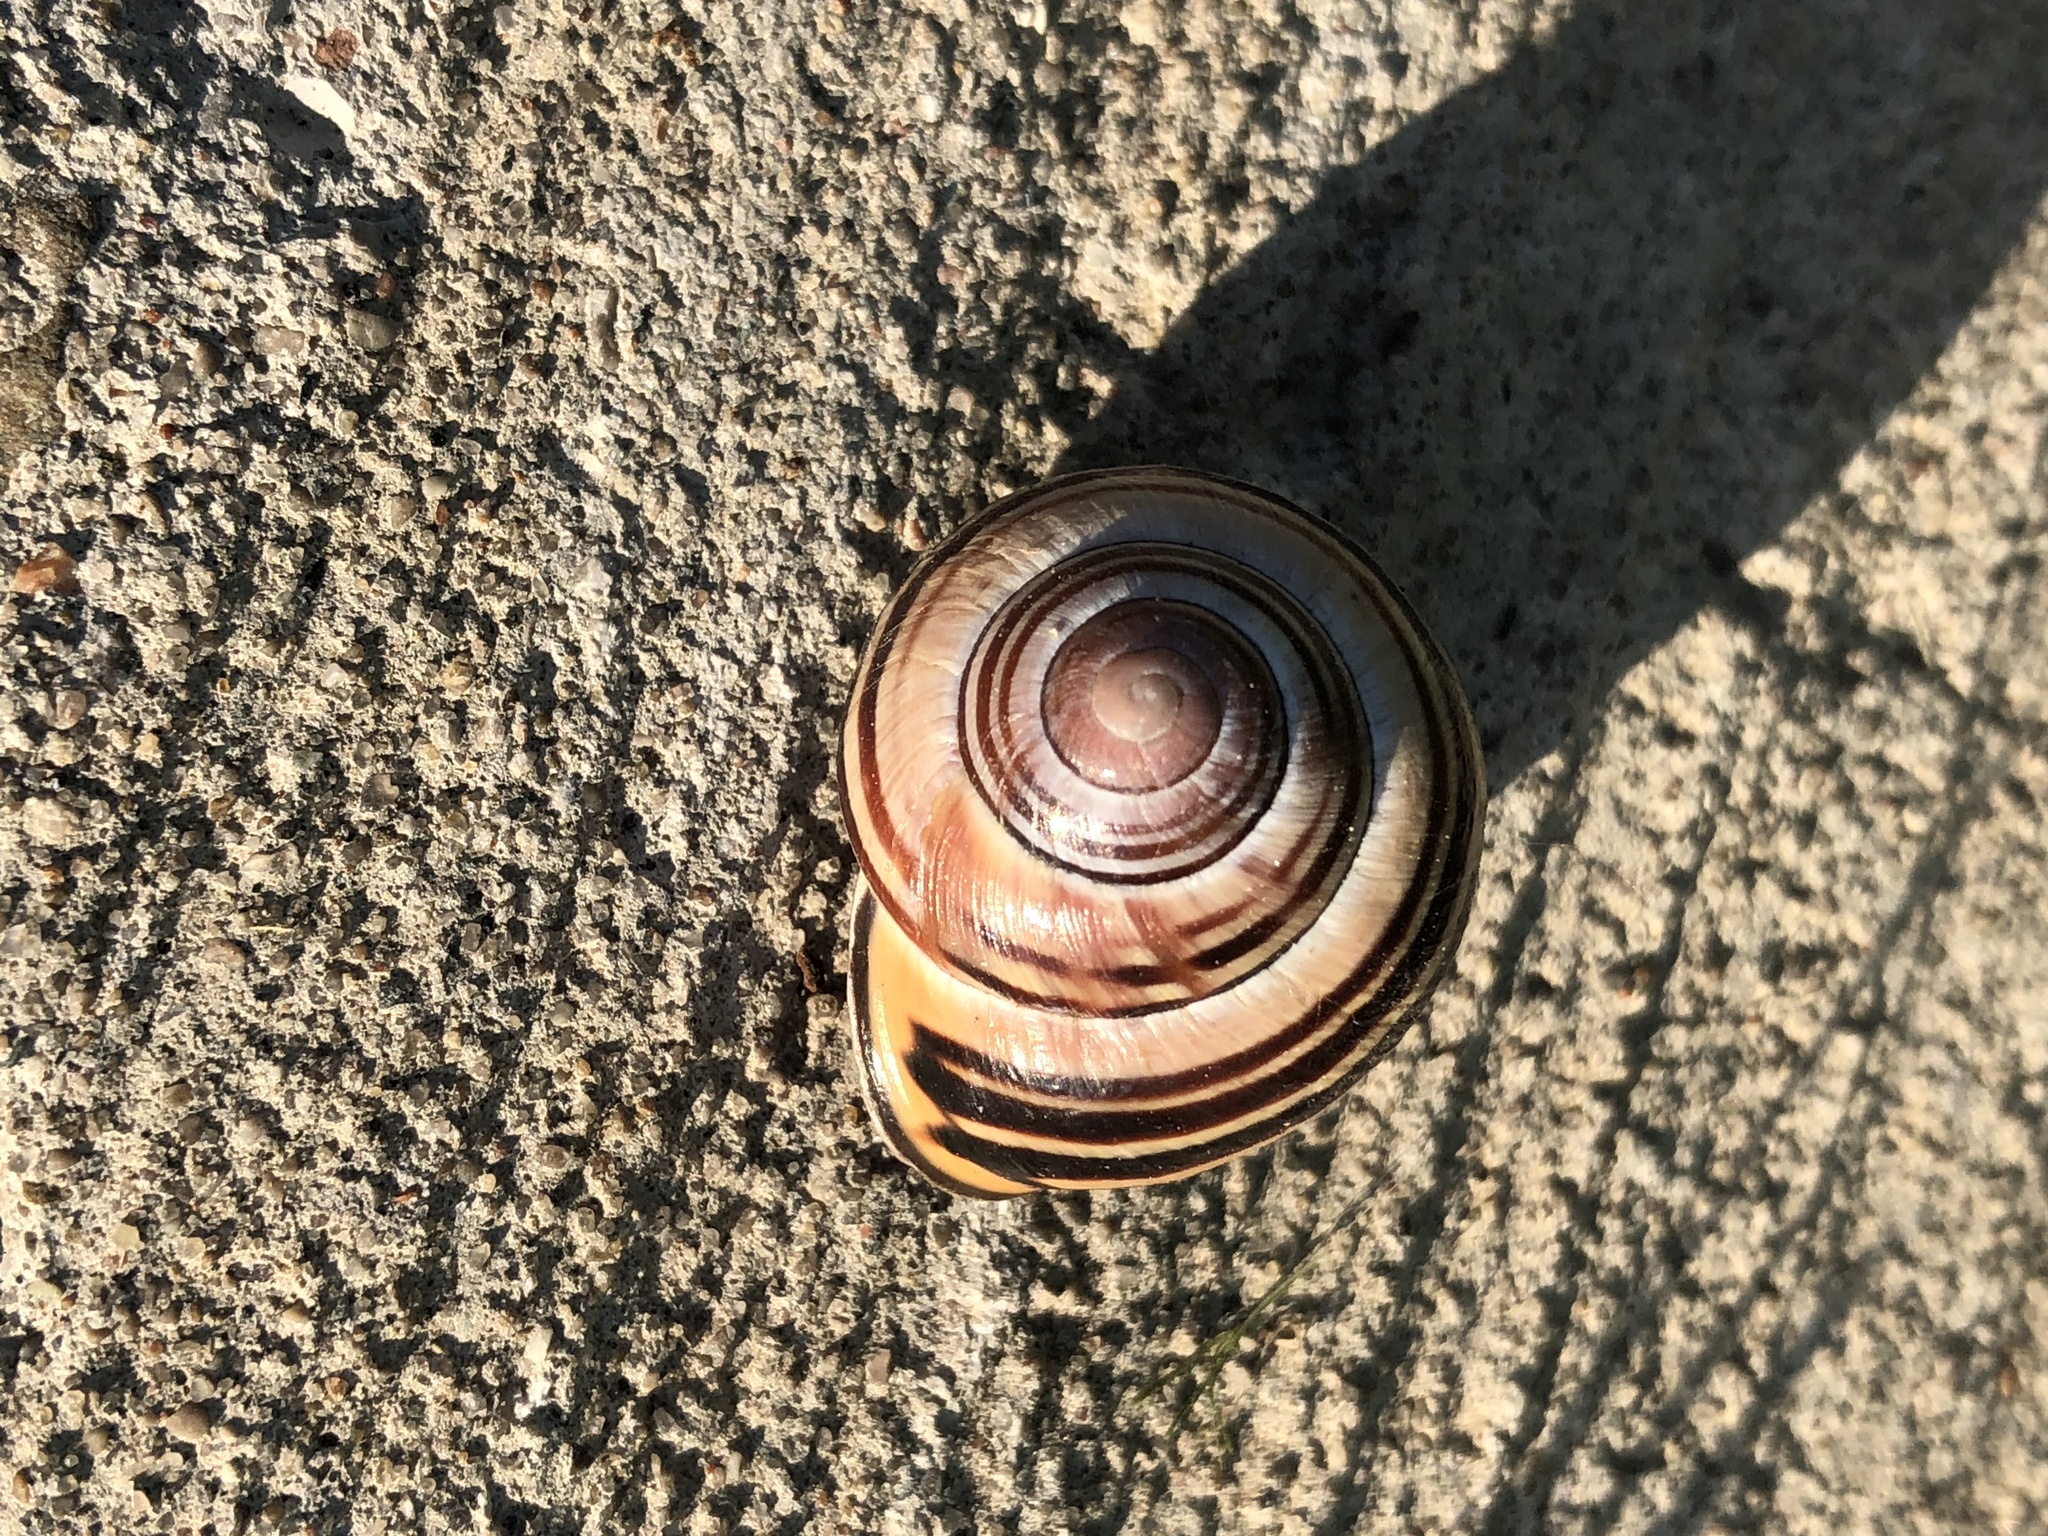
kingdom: Animalia
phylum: Mollusca
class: Gastropoda
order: Stylommatophora
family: Helicidae
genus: Cepaea
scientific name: Cepaea nemoralis
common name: Grovesnail
